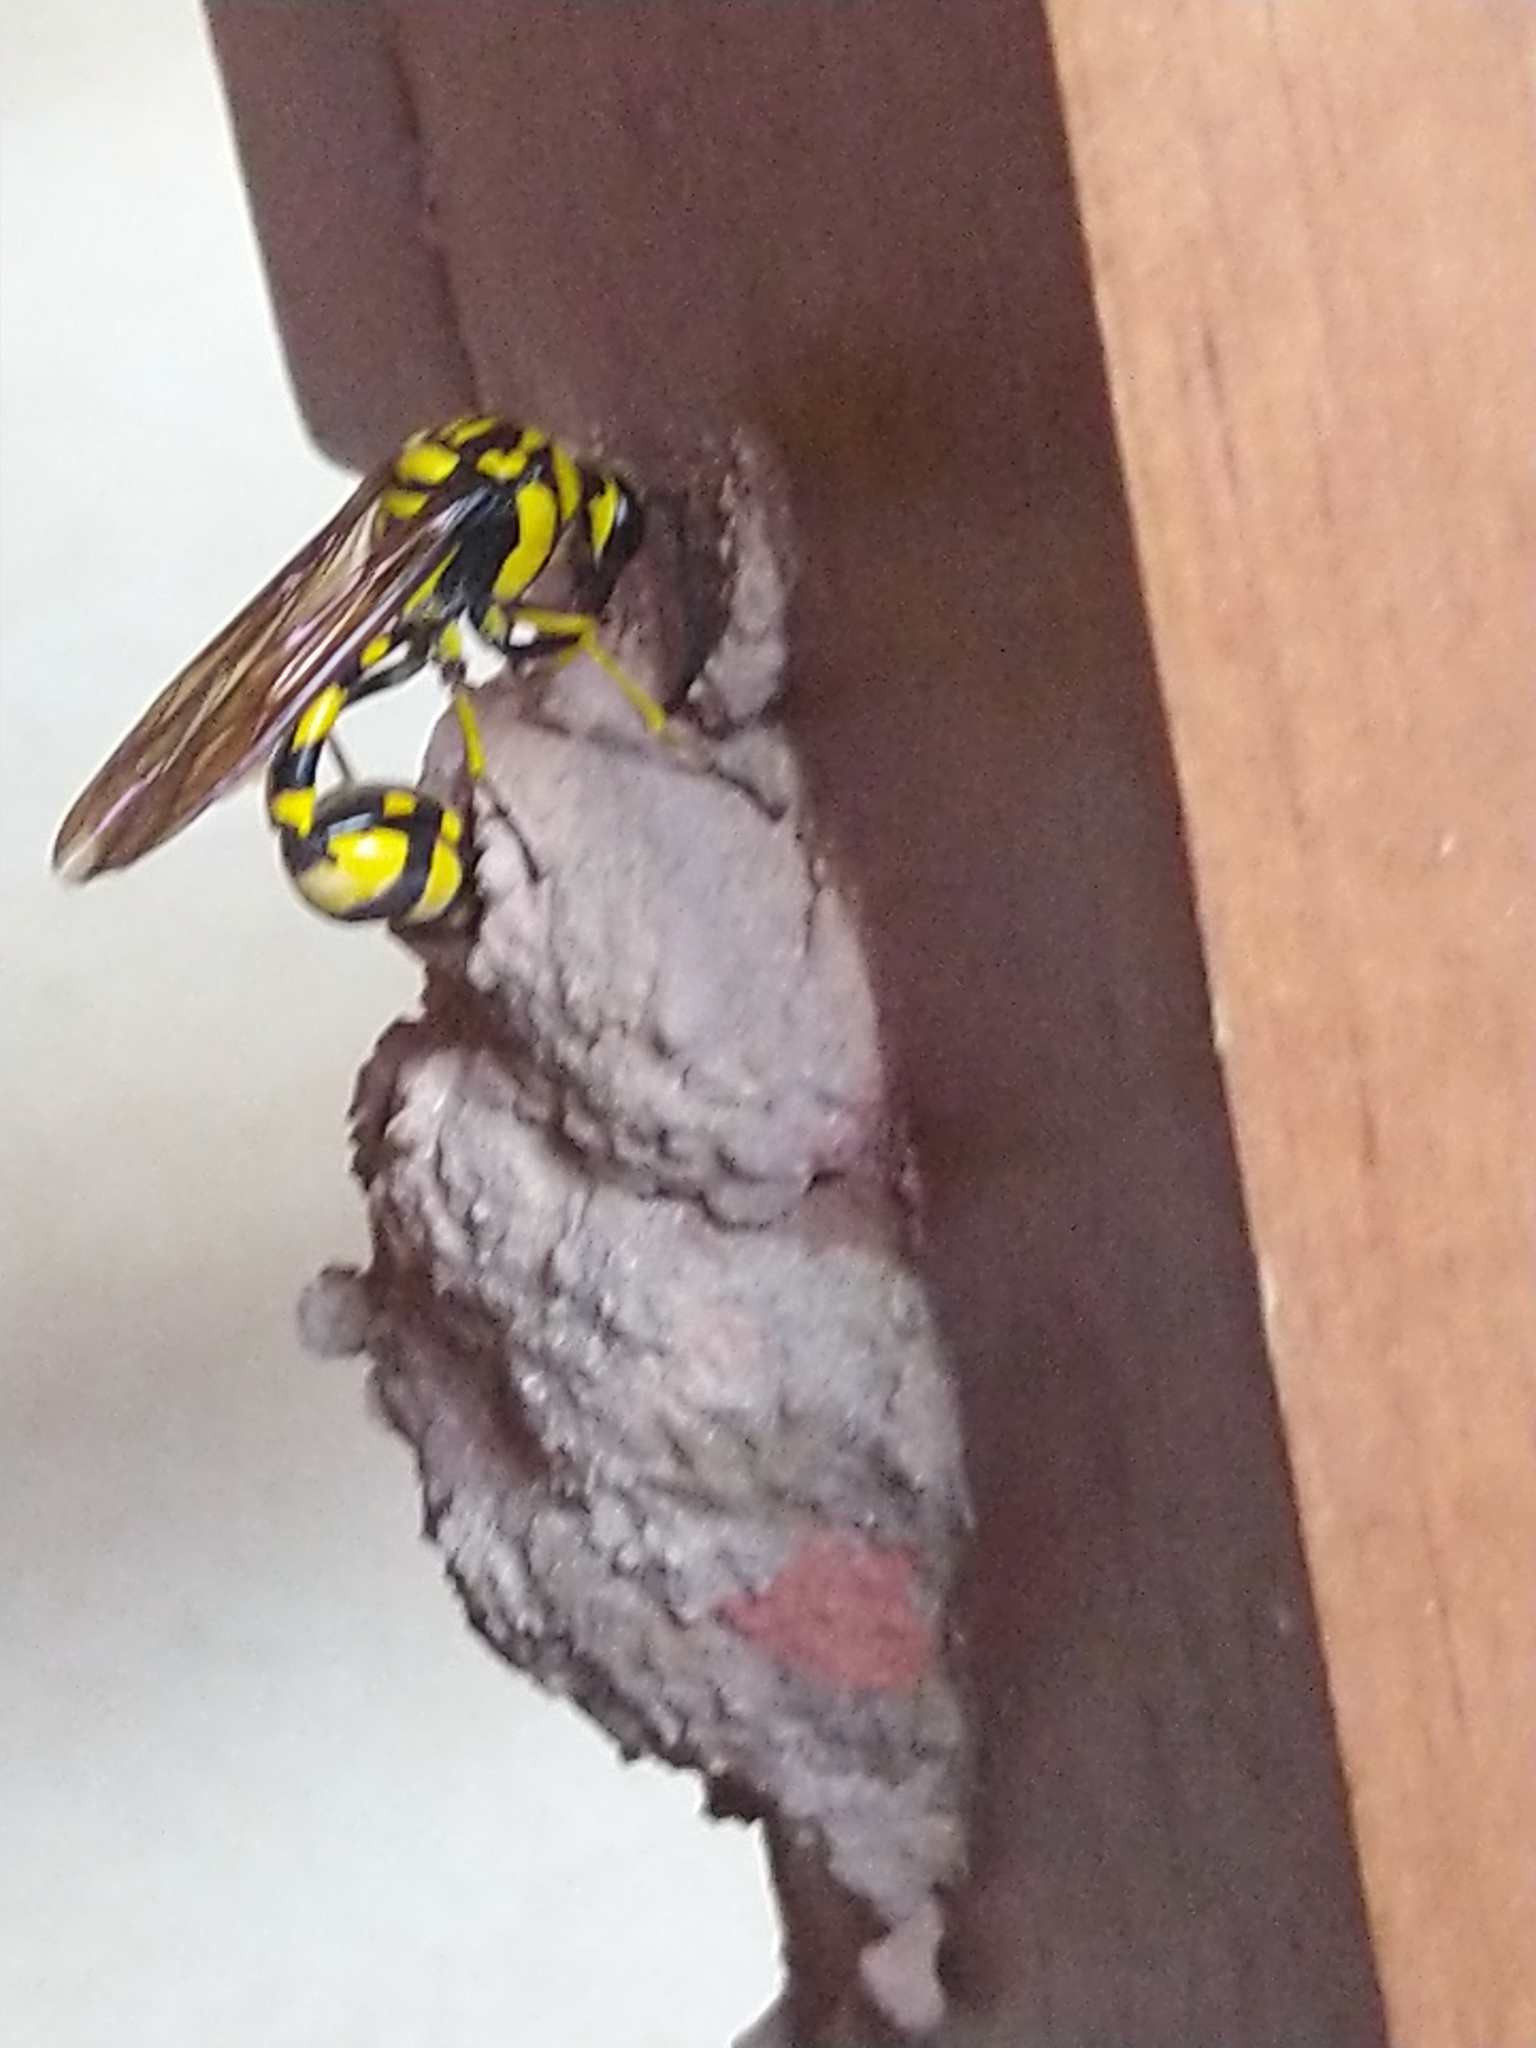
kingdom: Animalia
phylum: Arthropoda
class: Insecta
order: Hymenoptera
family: Eumenidae
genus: Phimenes
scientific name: Phimenes flavopictus
